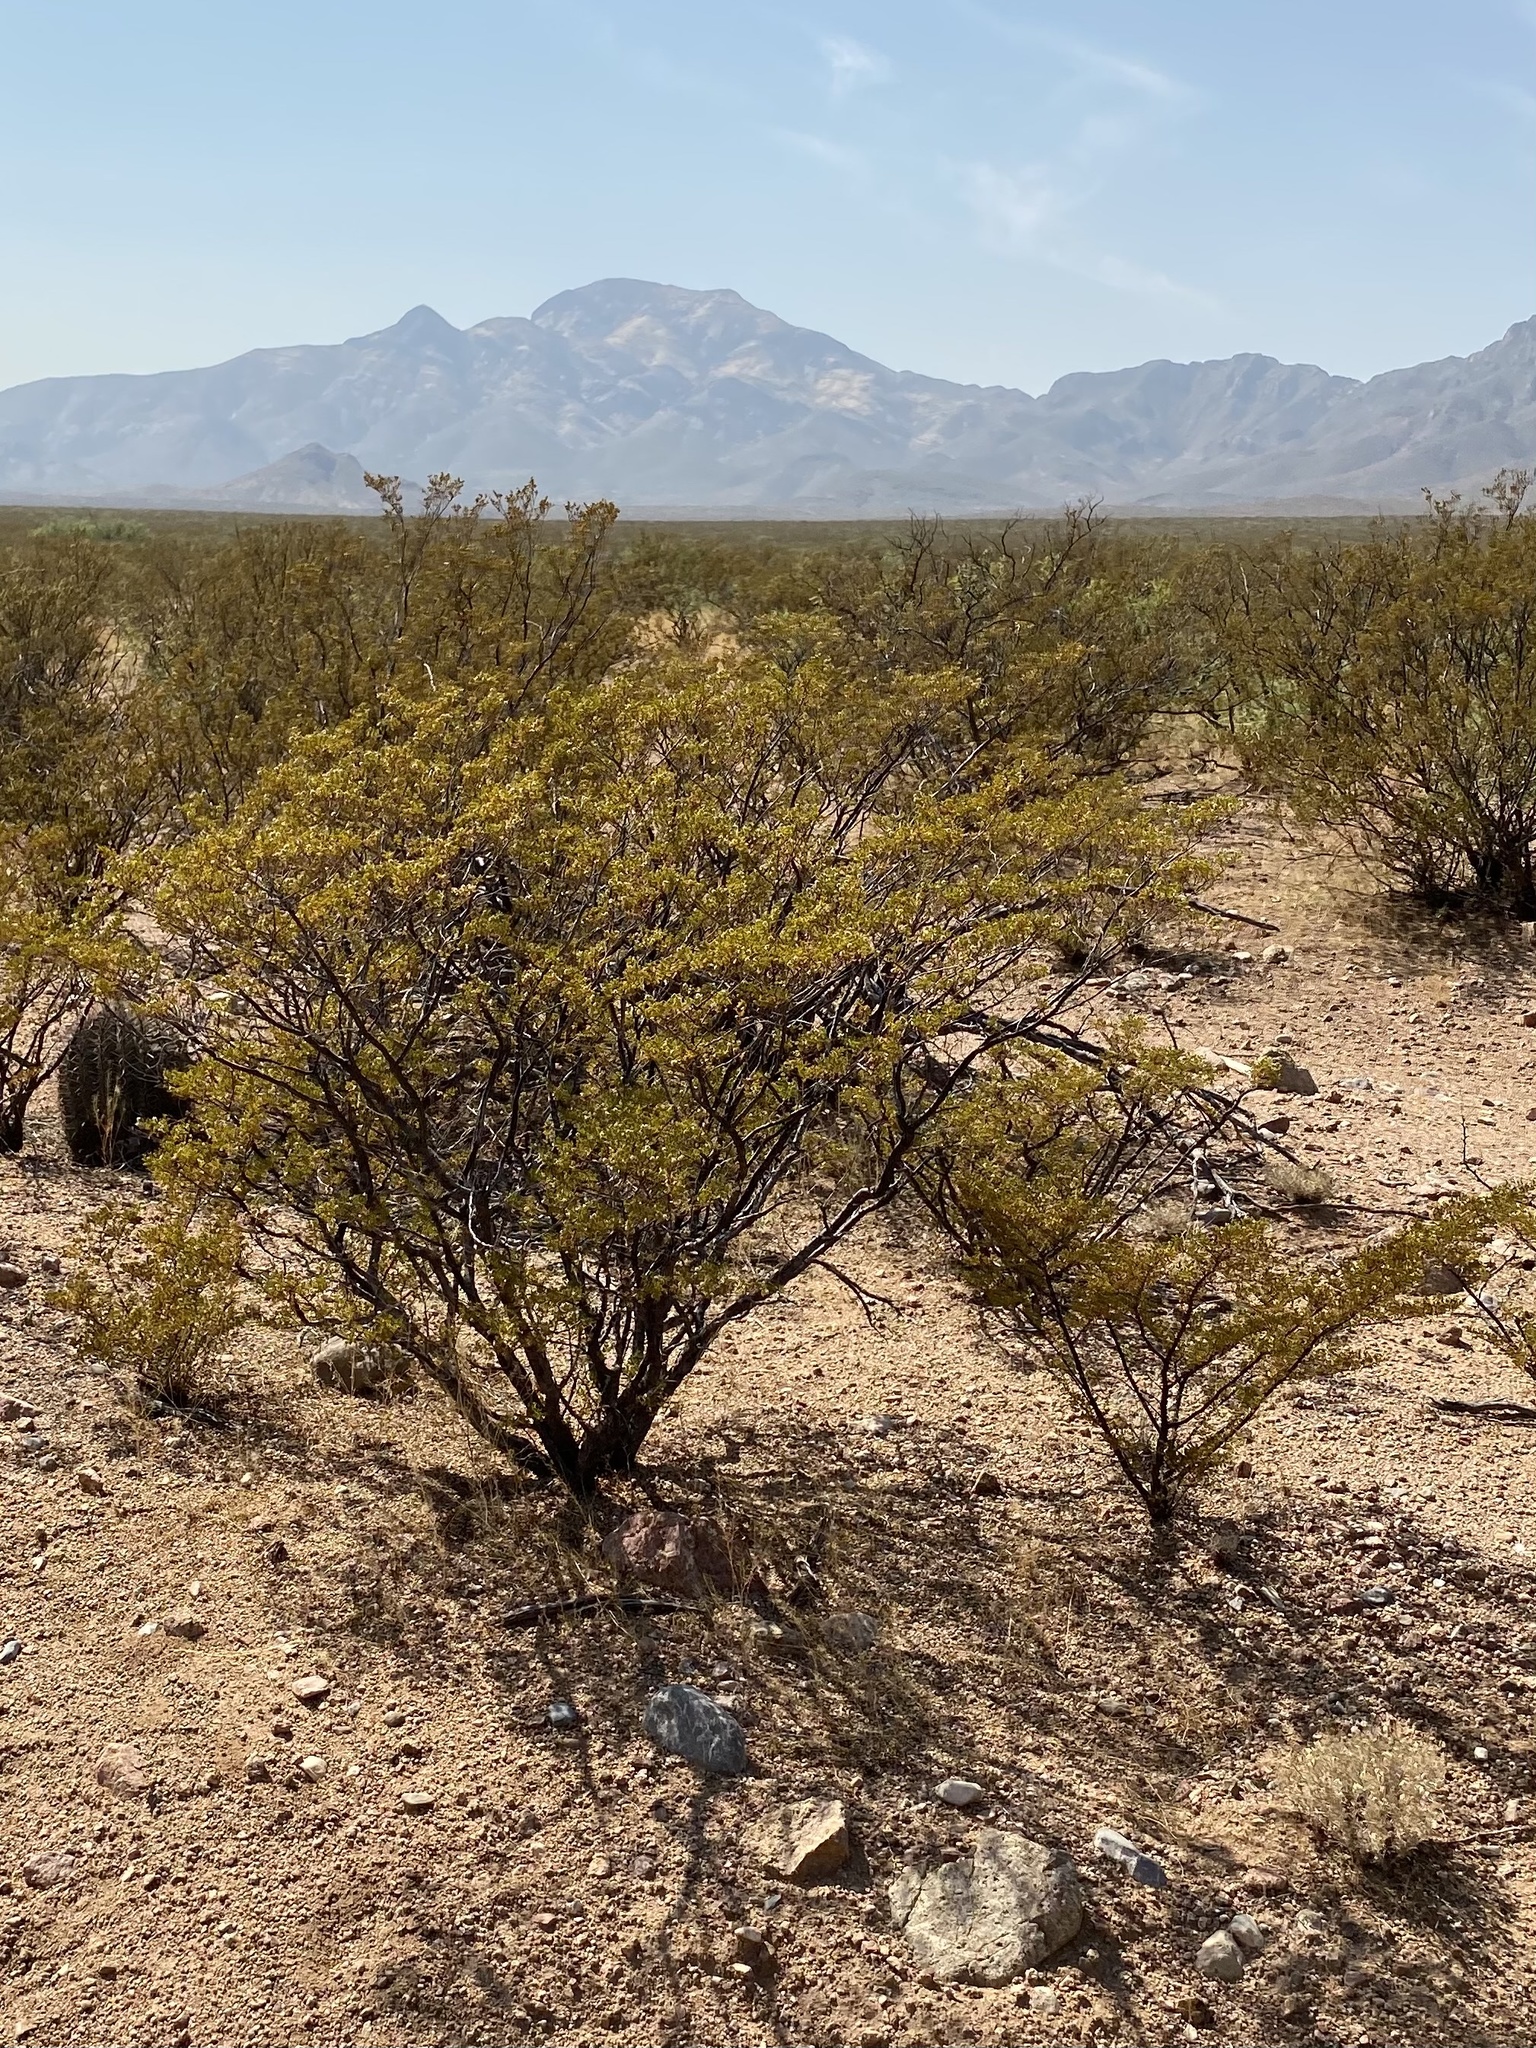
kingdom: Plantae
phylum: Tracheophyta
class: Magnoliopsida
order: Zygophyllales
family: Zygophyllaceae
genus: Larrea
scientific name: Larrea tridentata
